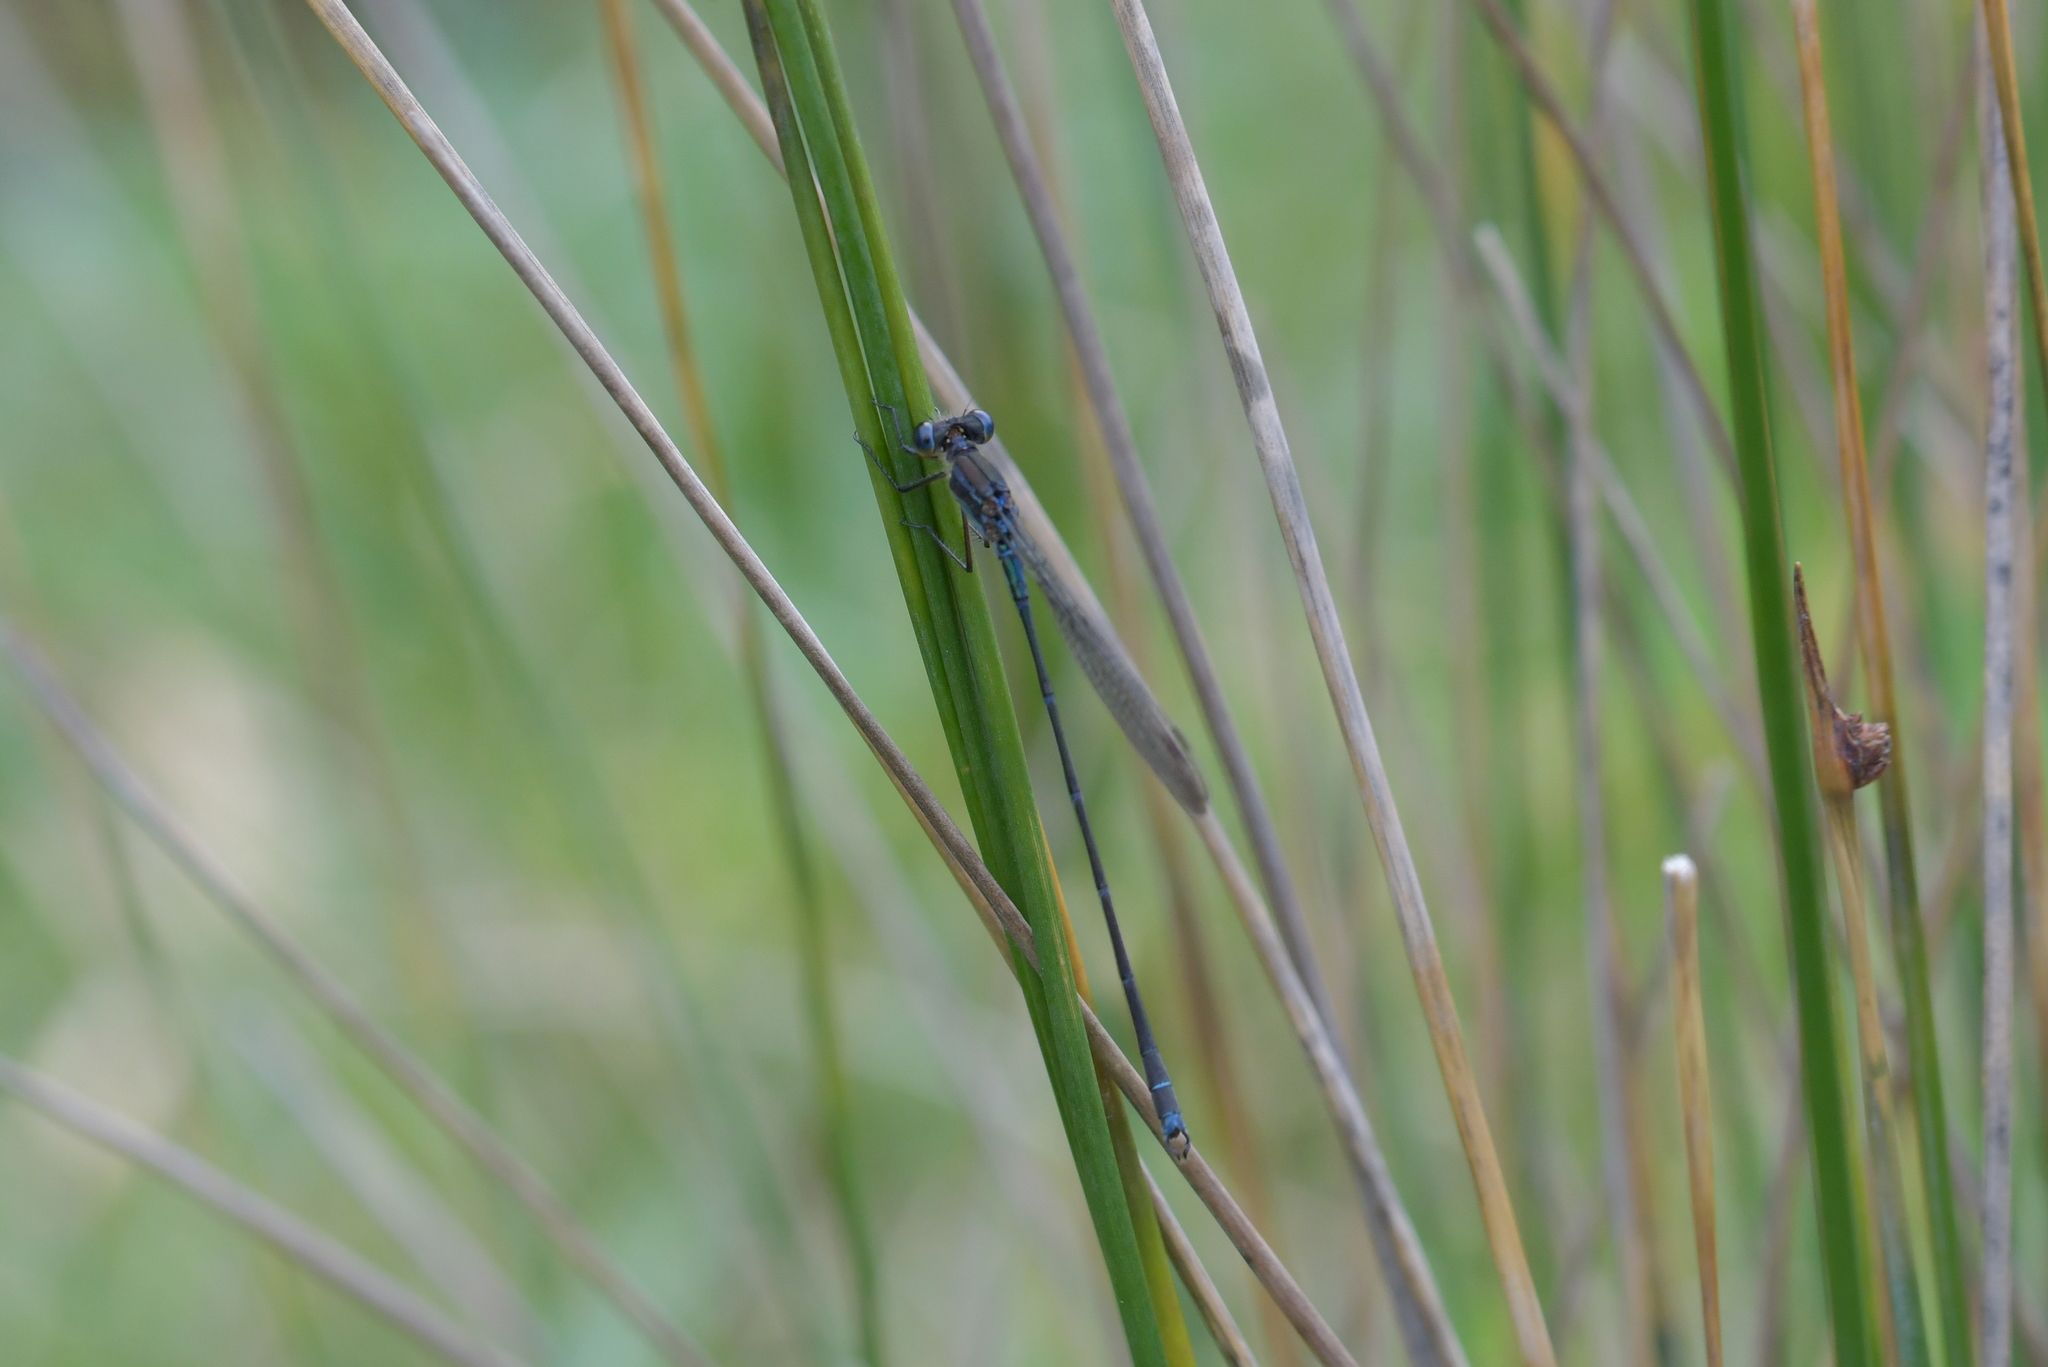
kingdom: Animalia
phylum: Arthropoda
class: Insecta
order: Odonata
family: Lestidae
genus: Austrolestes
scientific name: Austrolestes colensonis
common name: Blue damselfly
